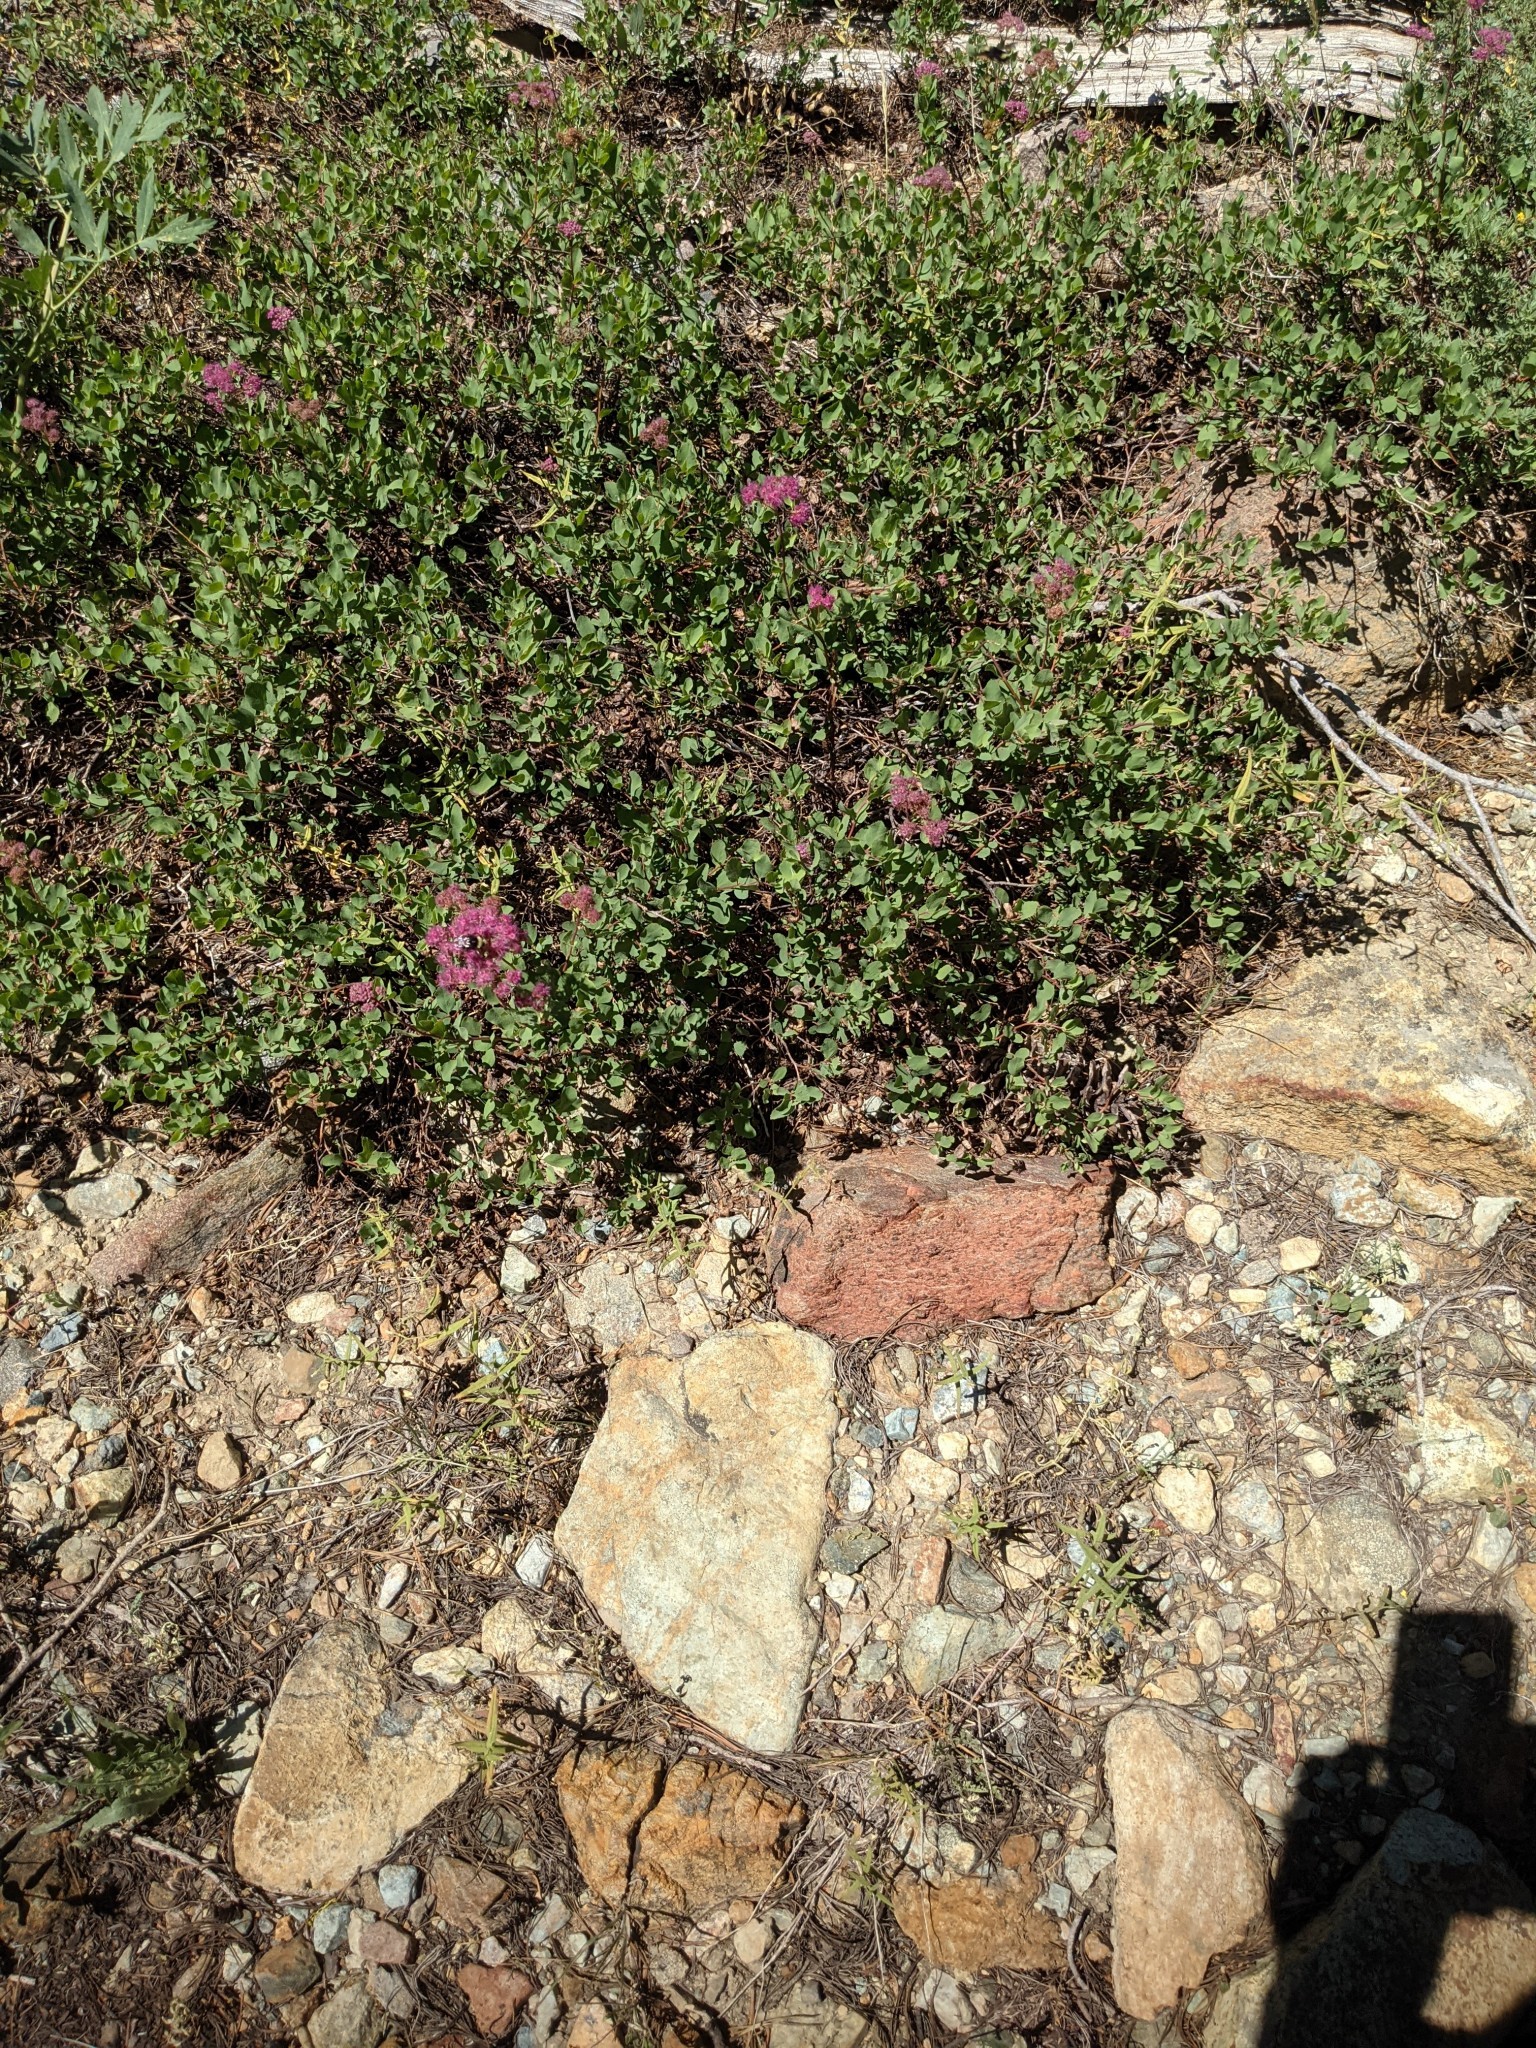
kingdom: Plantae
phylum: Tracheophyta
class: Magnoliopsida
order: Rosales
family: Rosaceae
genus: Spiraea
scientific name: Spiraea splendens
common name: Subalpine meadowsweet
